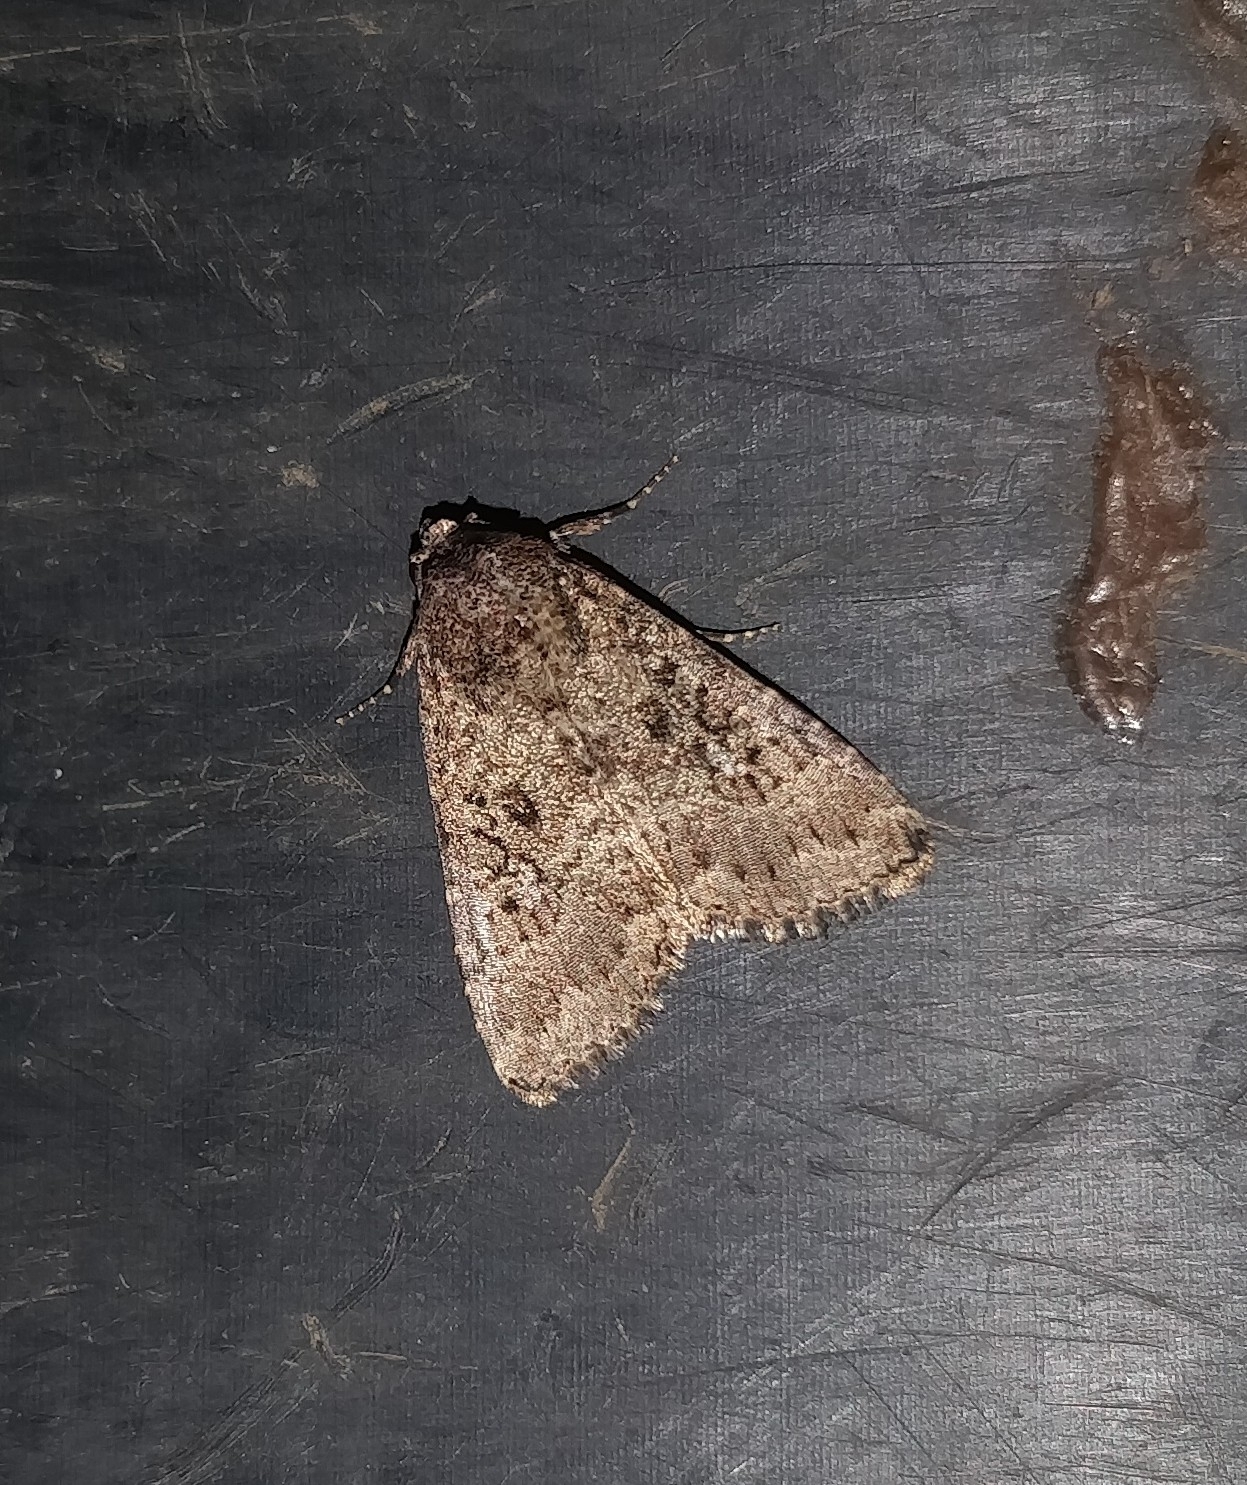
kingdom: Animalia
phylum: Arthropoda
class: Insecta
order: Lepidoptera
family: Noctuidae
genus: Condica
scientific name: Condica capensis
